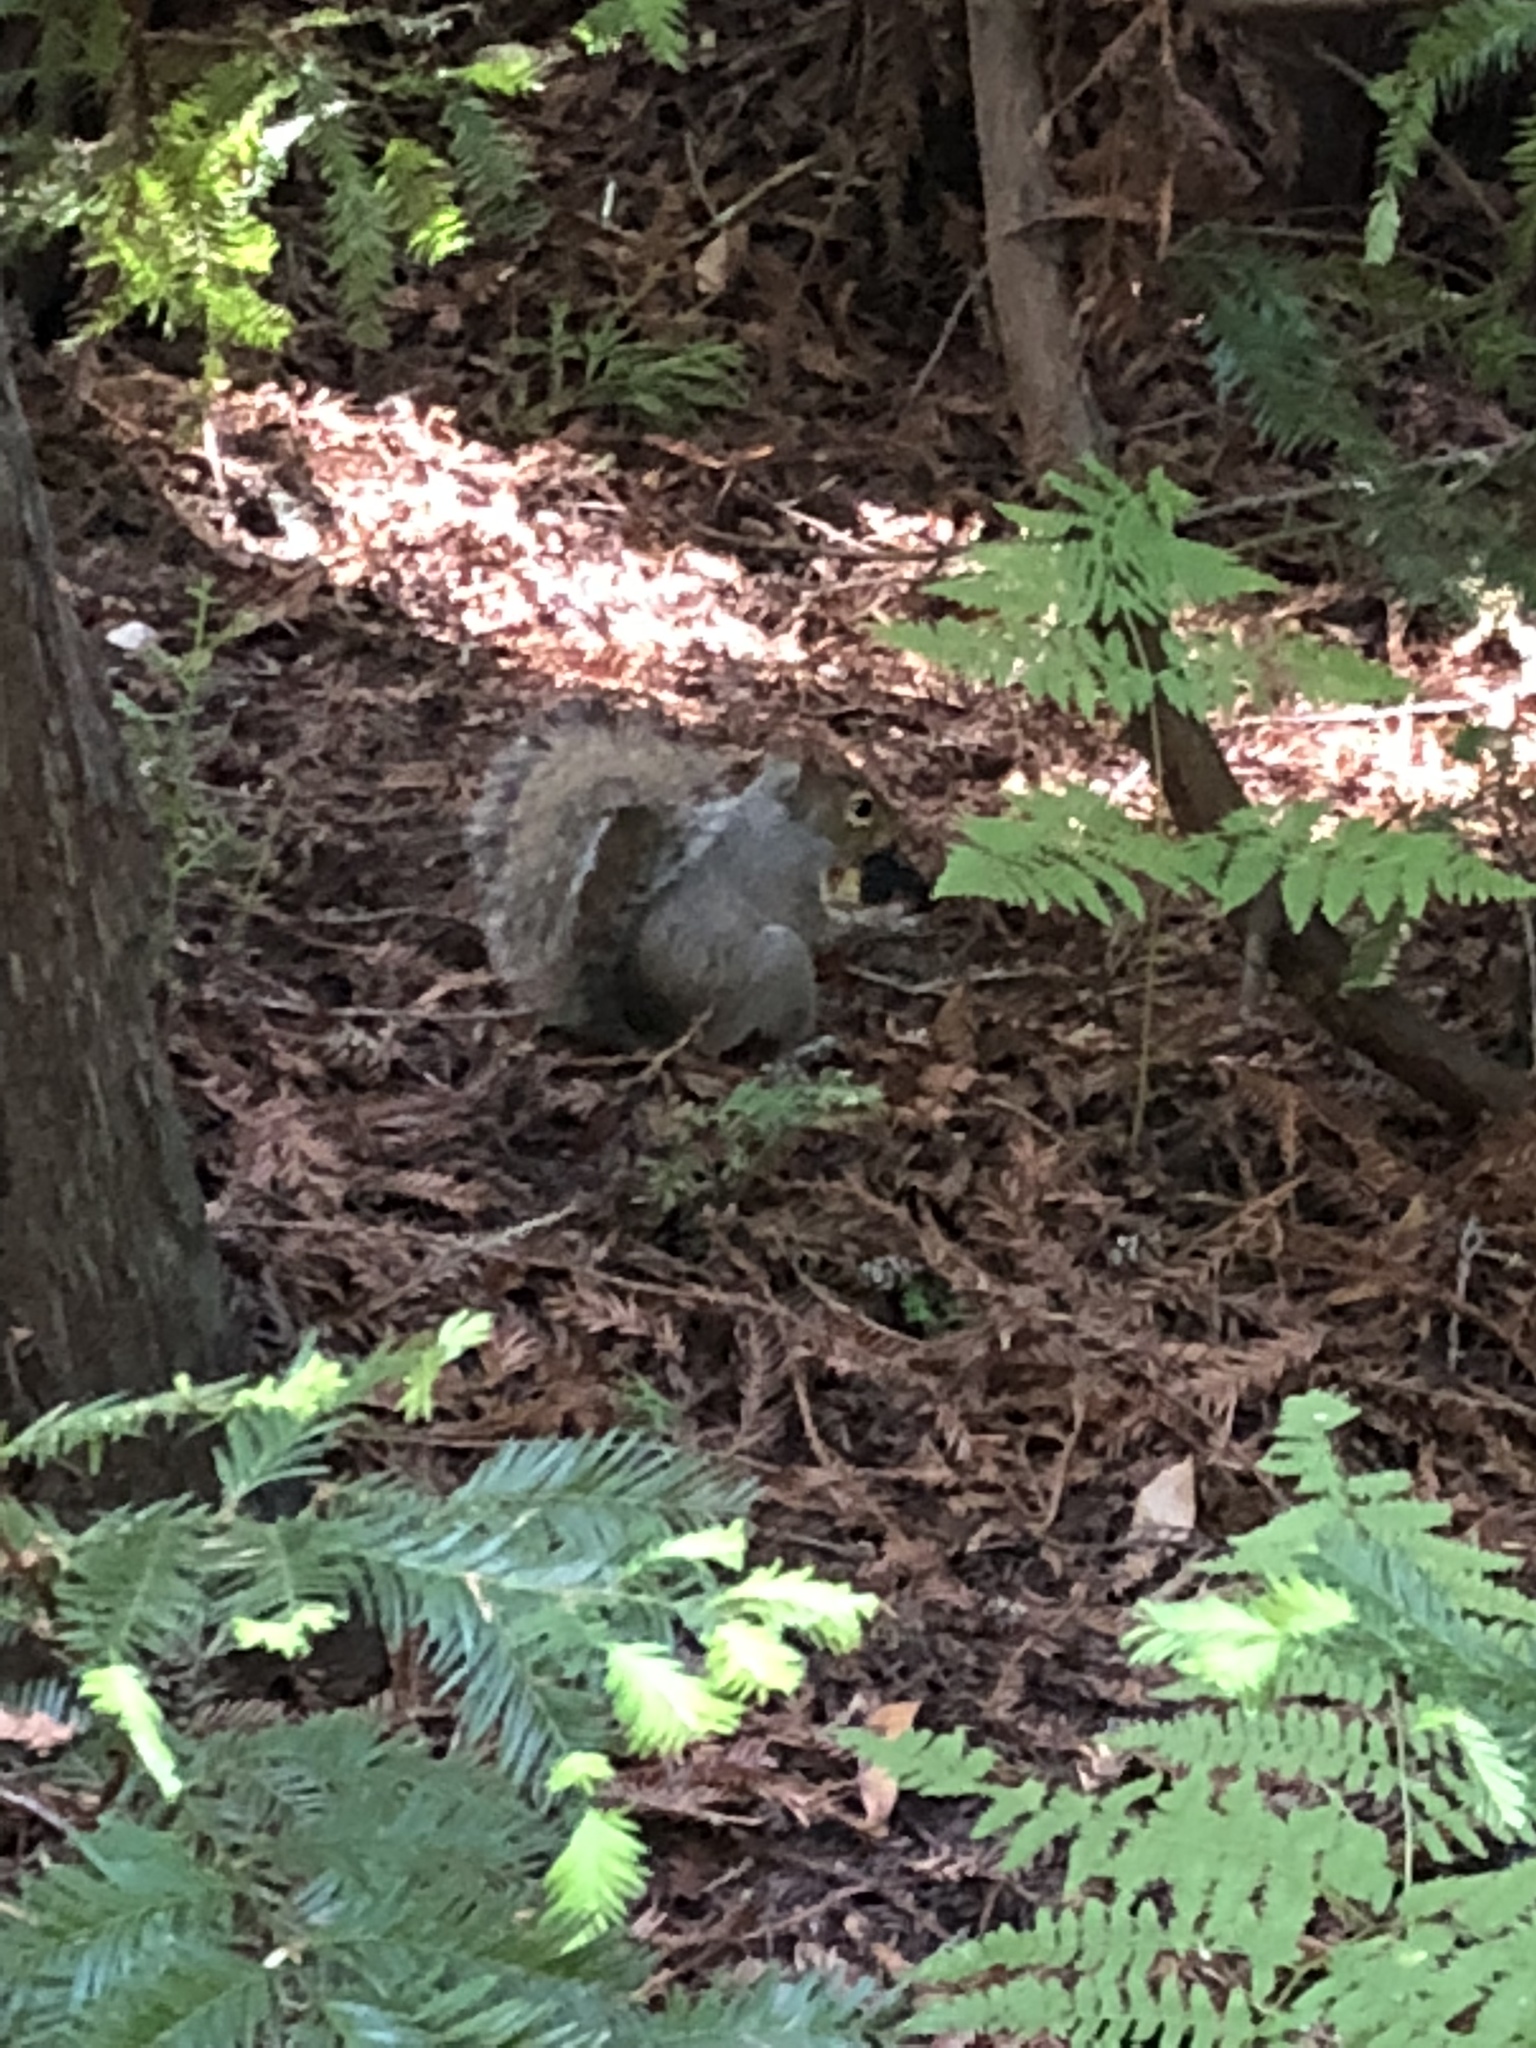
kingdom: Animalia
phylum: Chordata
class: Mammalia
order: Rodentia
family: Sciuridae
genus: Sciurus
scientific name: Sciurus carolinensis
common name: Eastern gray squirrel
